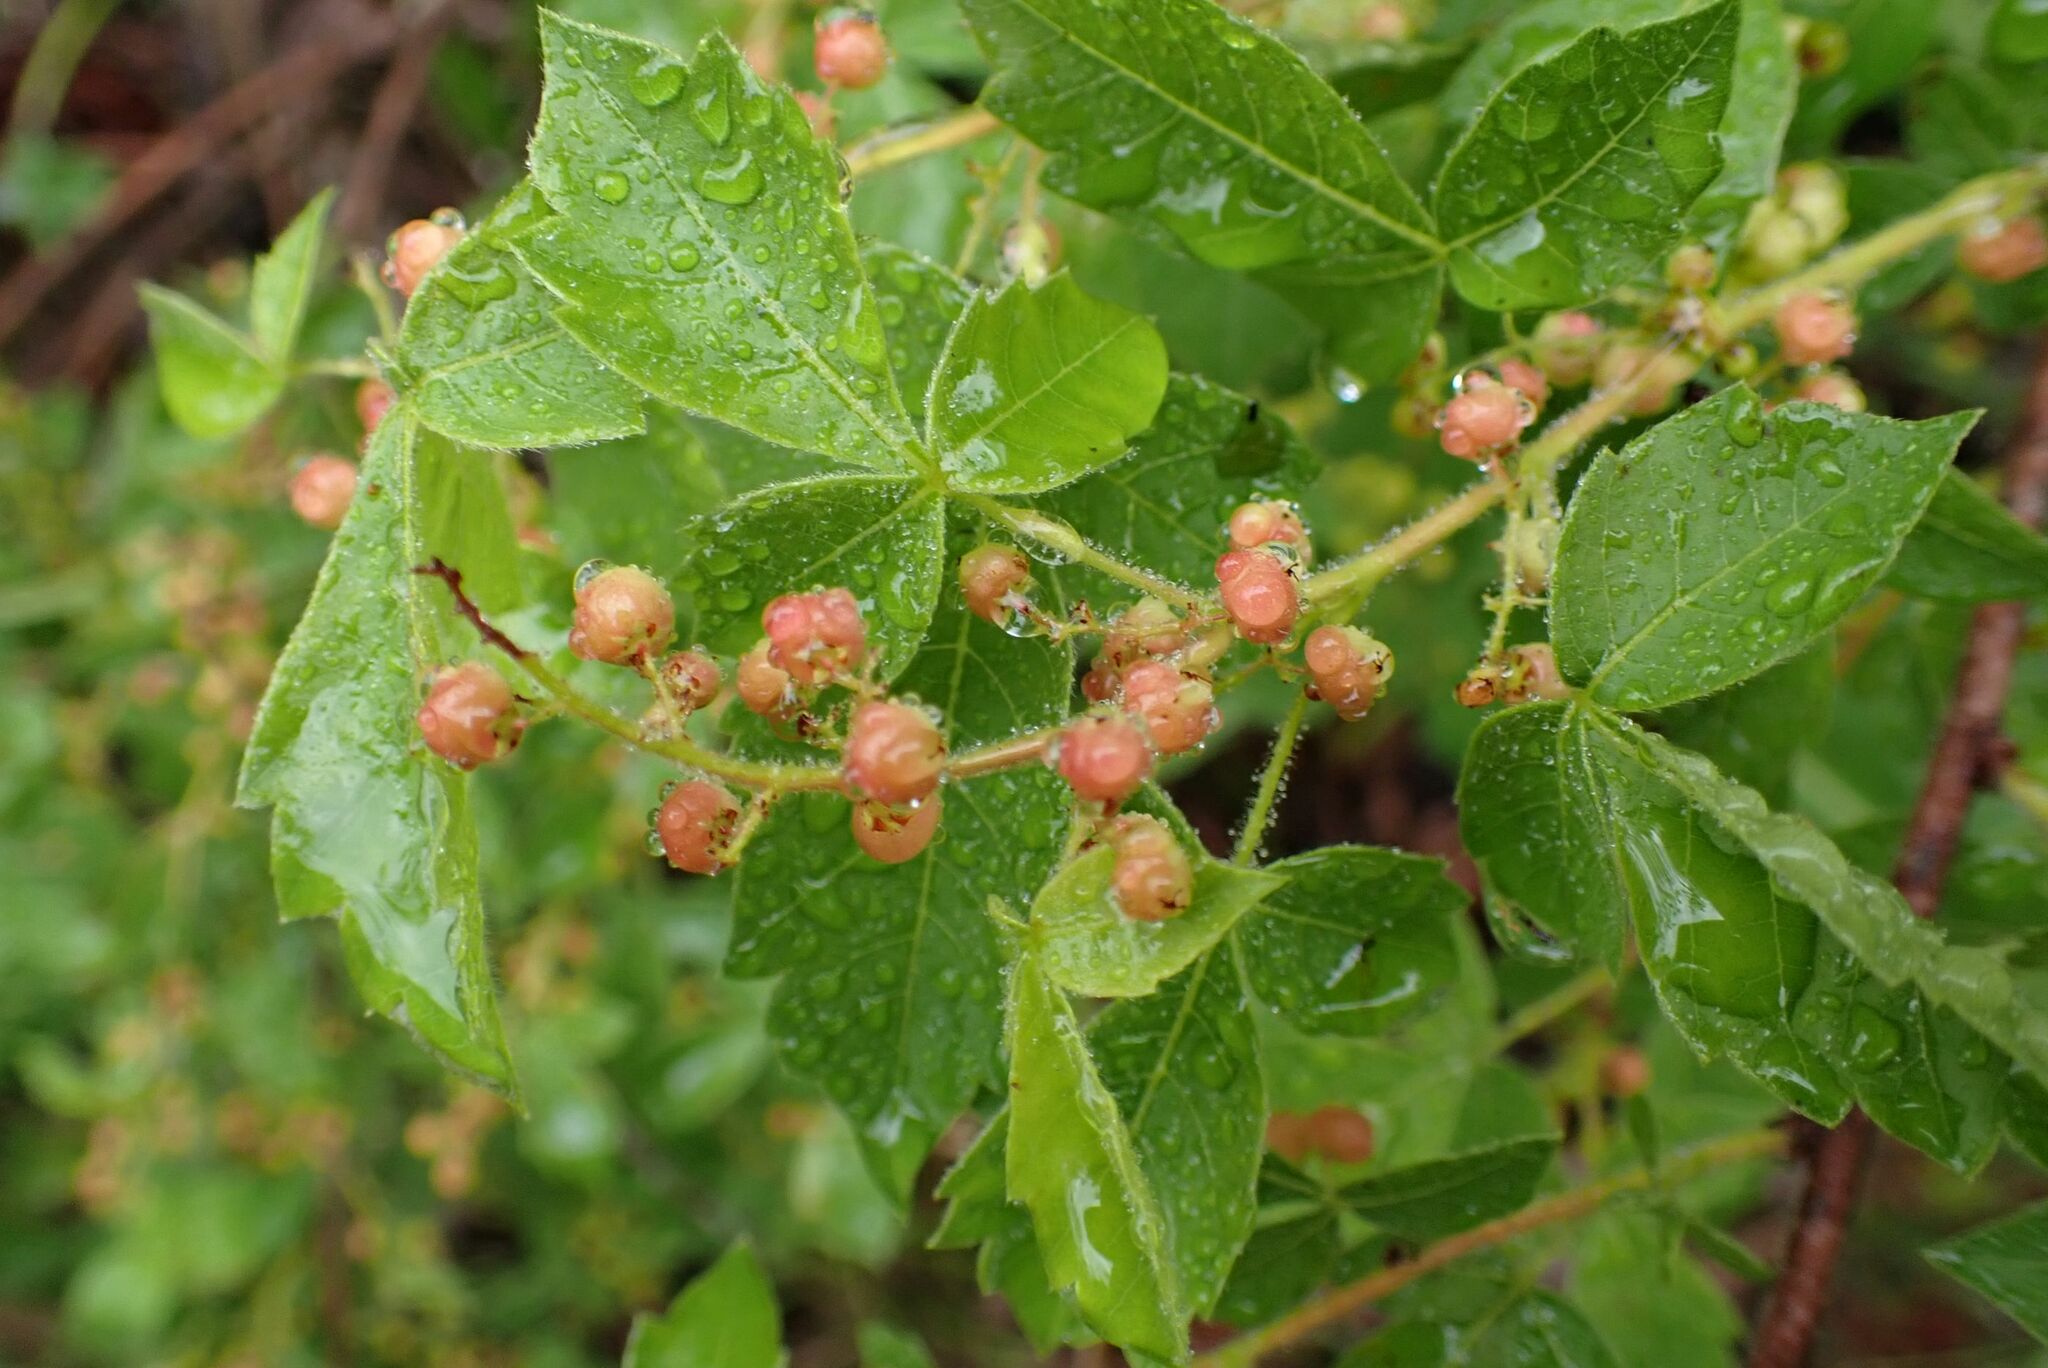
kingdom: Plantae
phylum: Tracheophyta
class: Magnoliopsida
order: Sapindales
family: Anacardiaceae
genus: Searsia
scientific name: Searsia dentata
